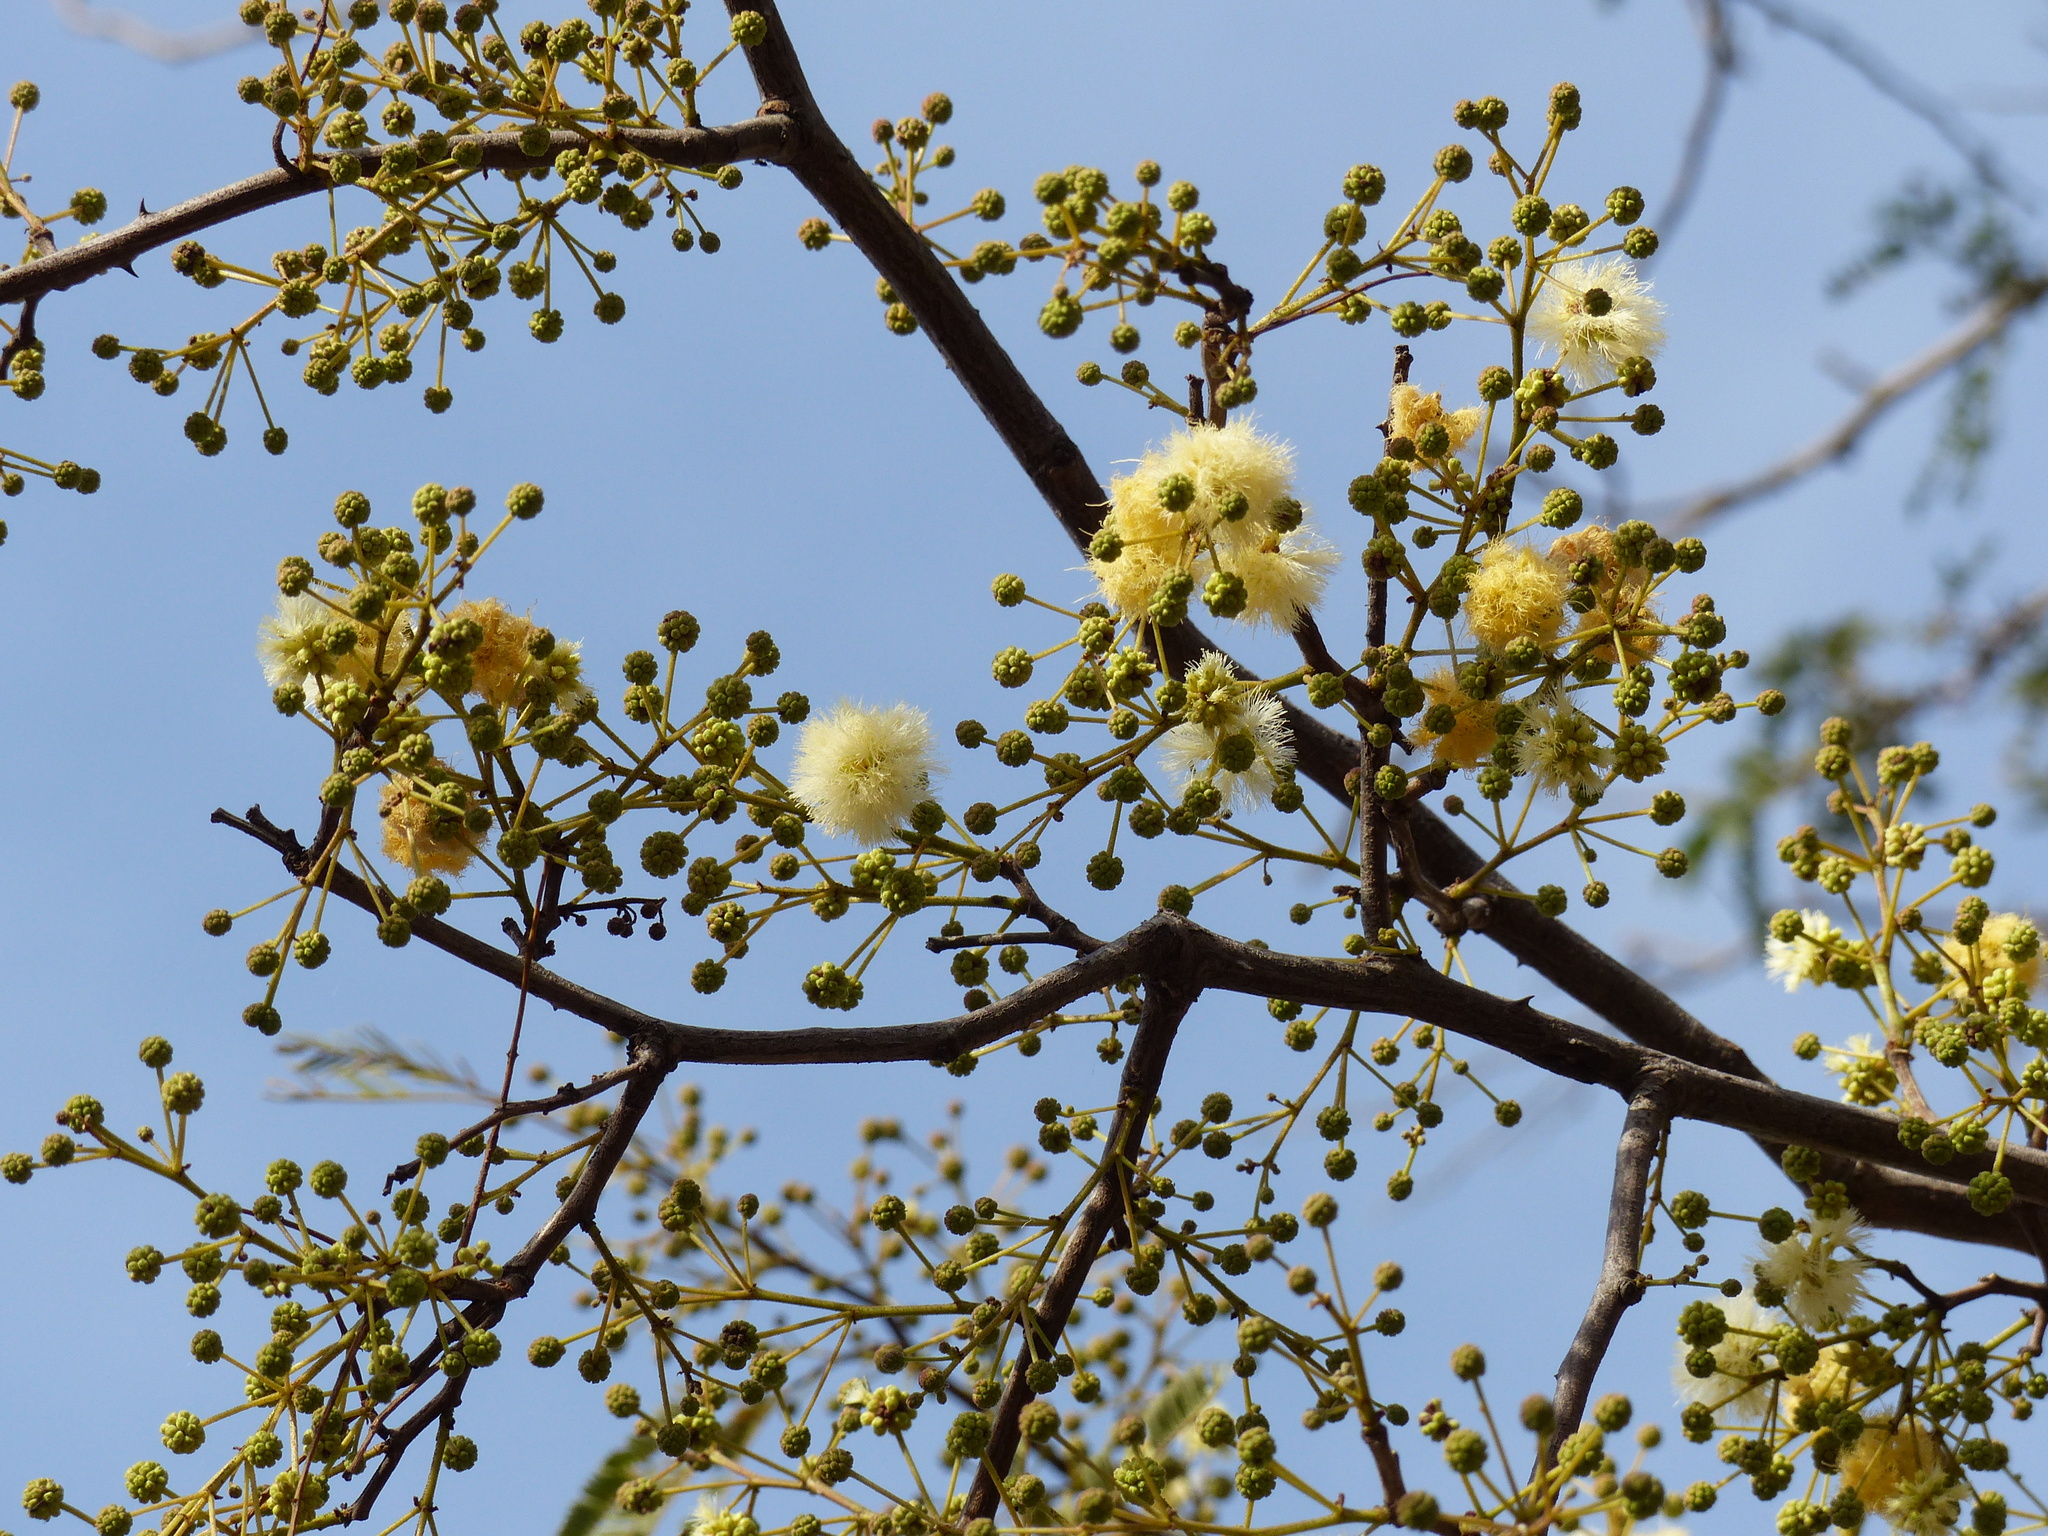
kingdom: Plantae
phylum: Tracheophyta
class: Magnoliopsida
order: Fabales
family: Fabaceae
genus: Senegalia
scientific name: Senegalia praecox
